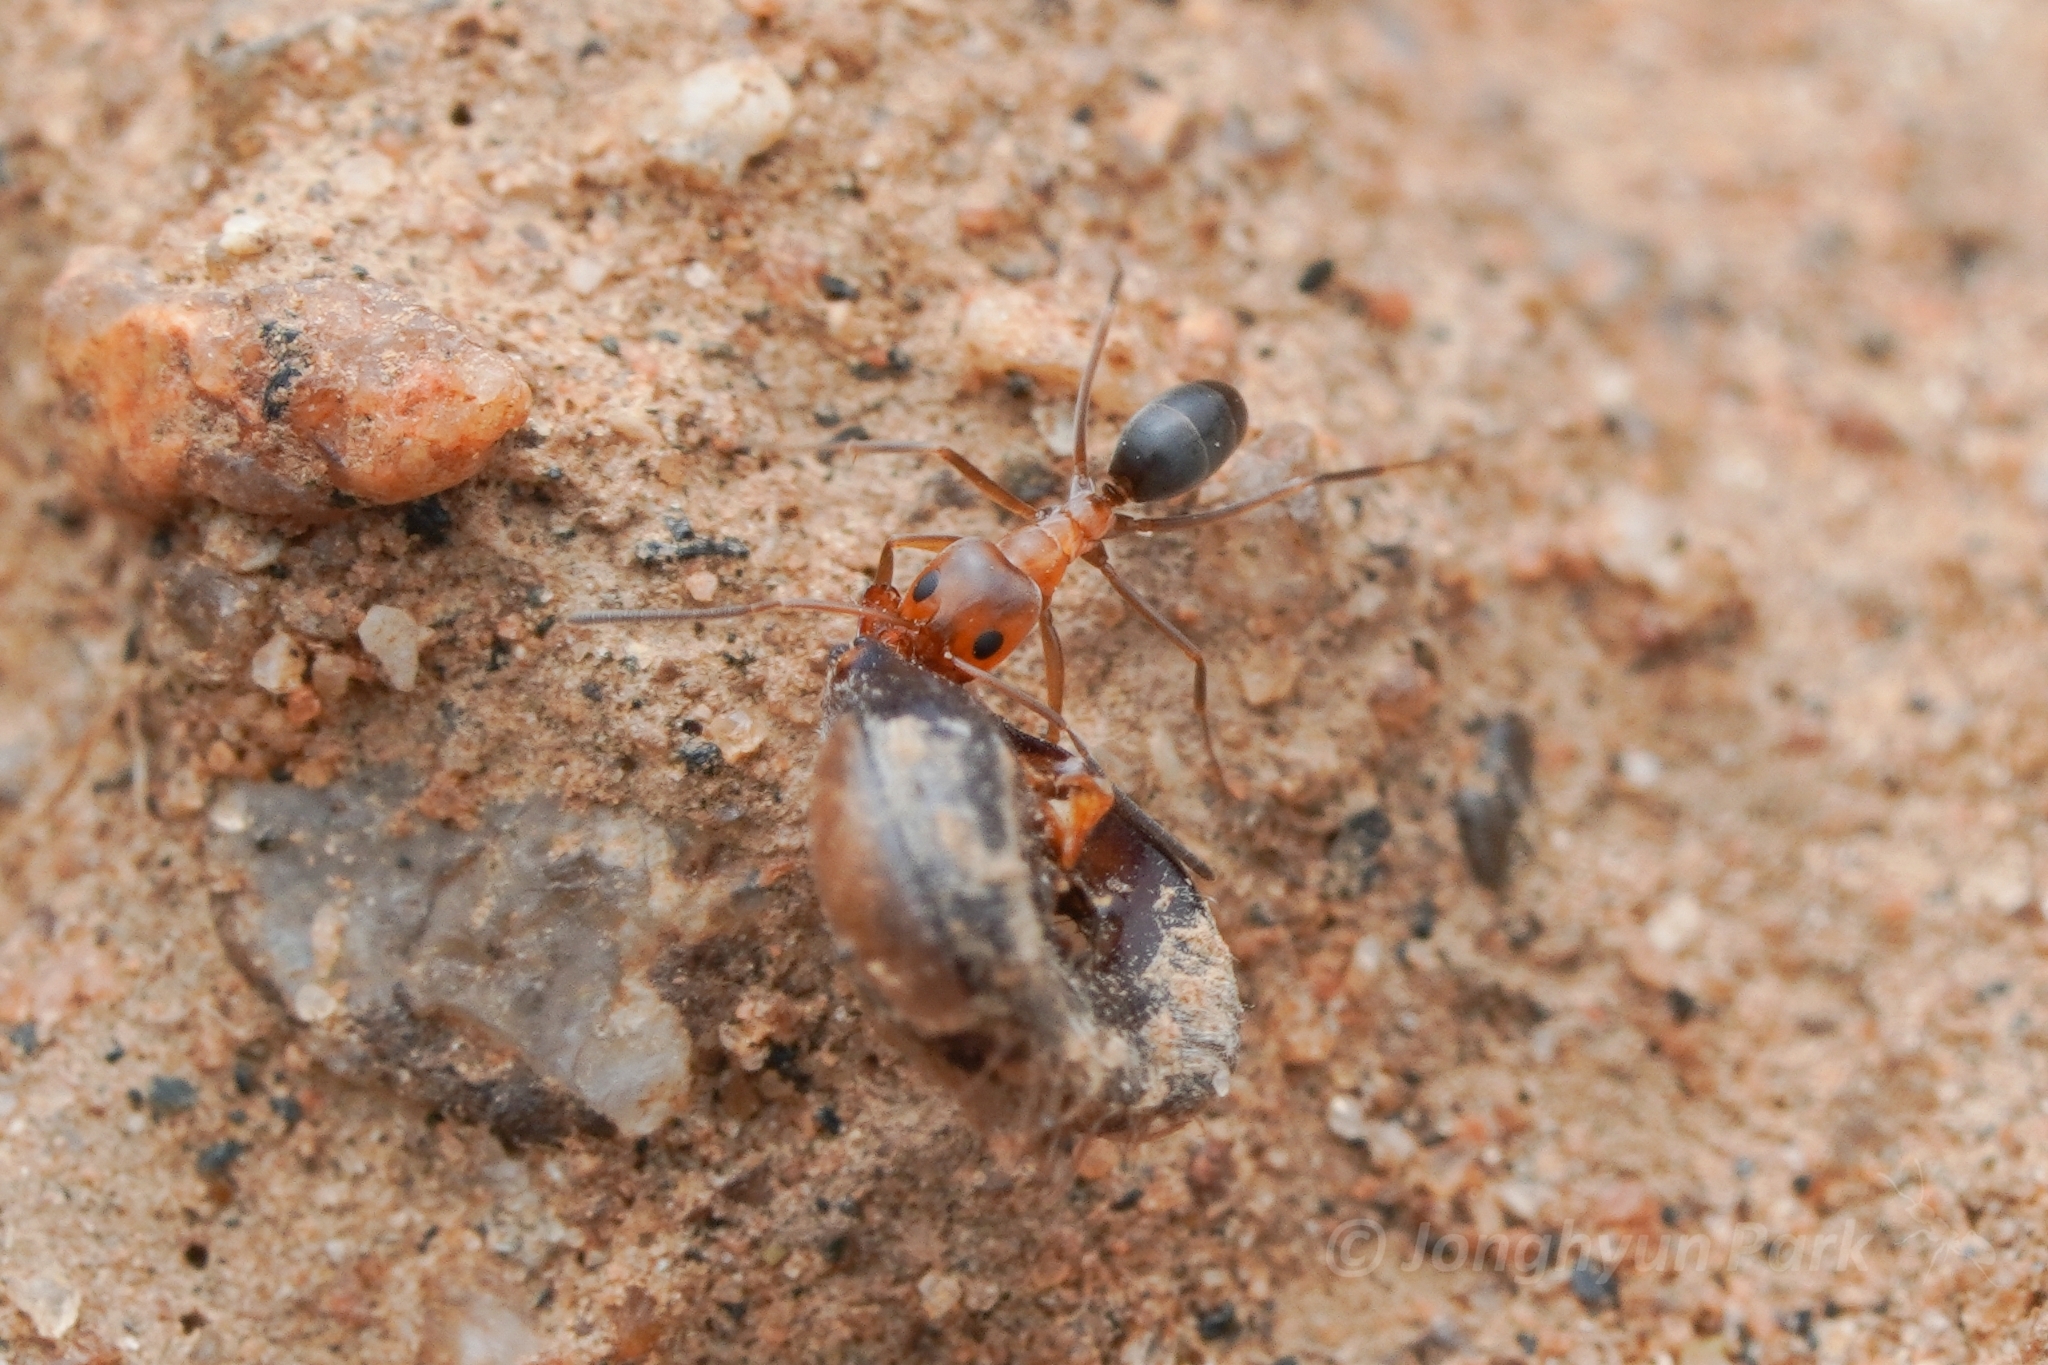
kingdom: Animalia
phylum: Arthropoda
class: Insecta
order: Hymenoptera
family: Formicidae
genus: Dorymyrmex
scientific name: Dorymyrmex bicolor
